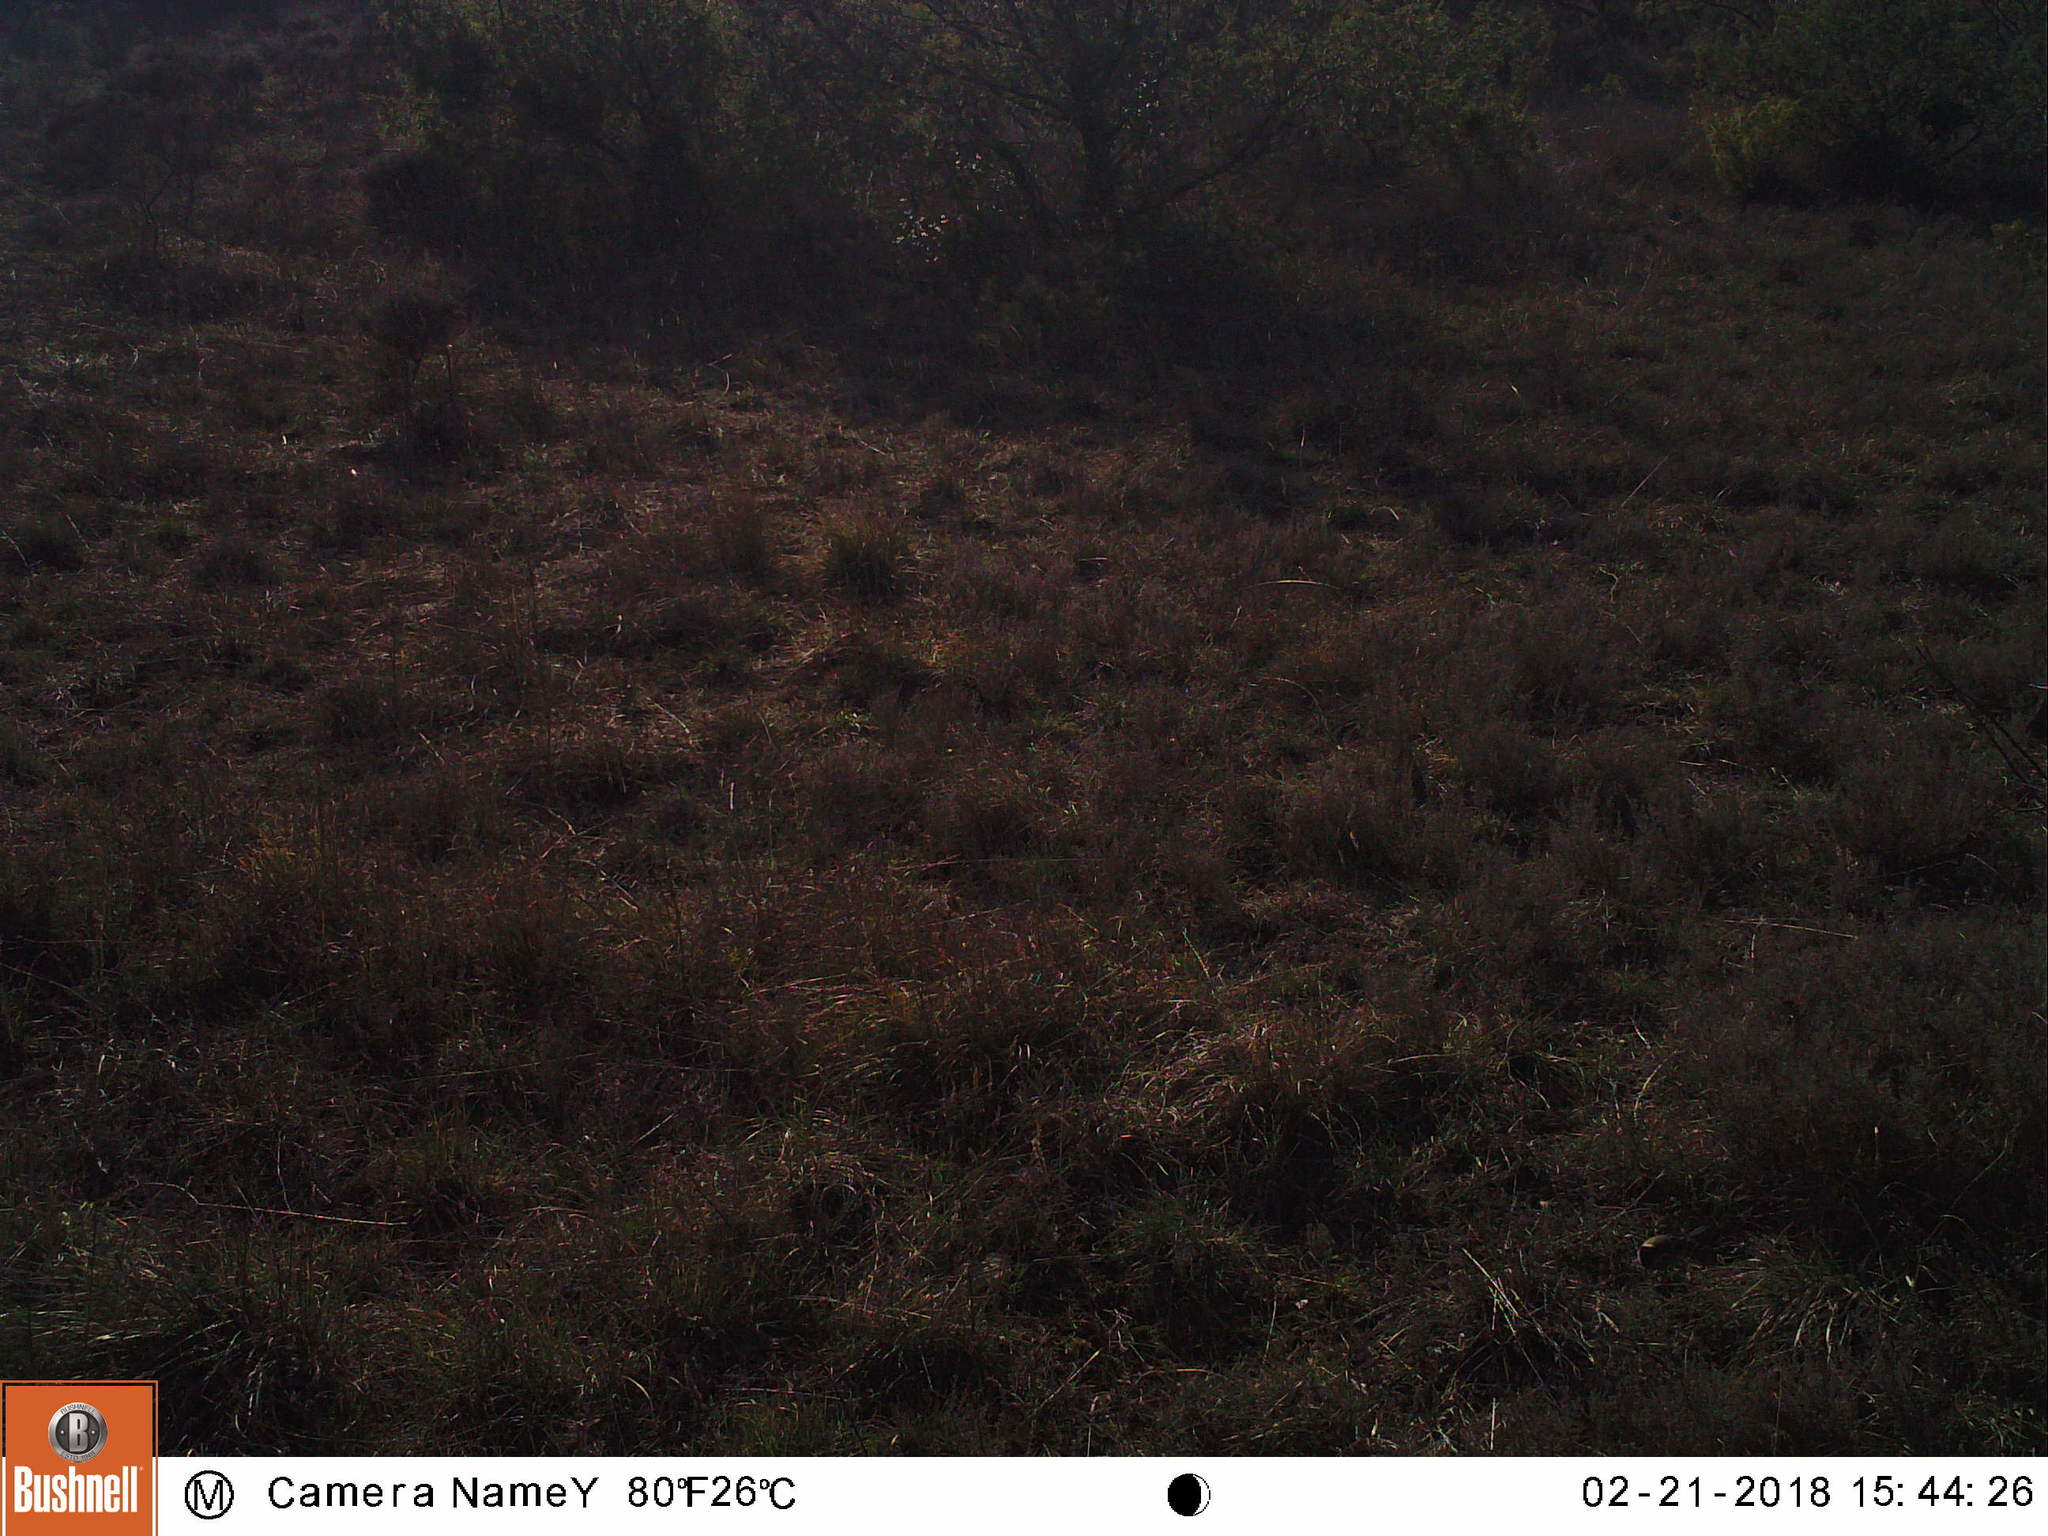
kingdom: Animalia
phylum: Chordata
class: Aves
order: Passeriformes
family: Paridae
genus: Parus
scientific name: Parus major
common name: Great tit
